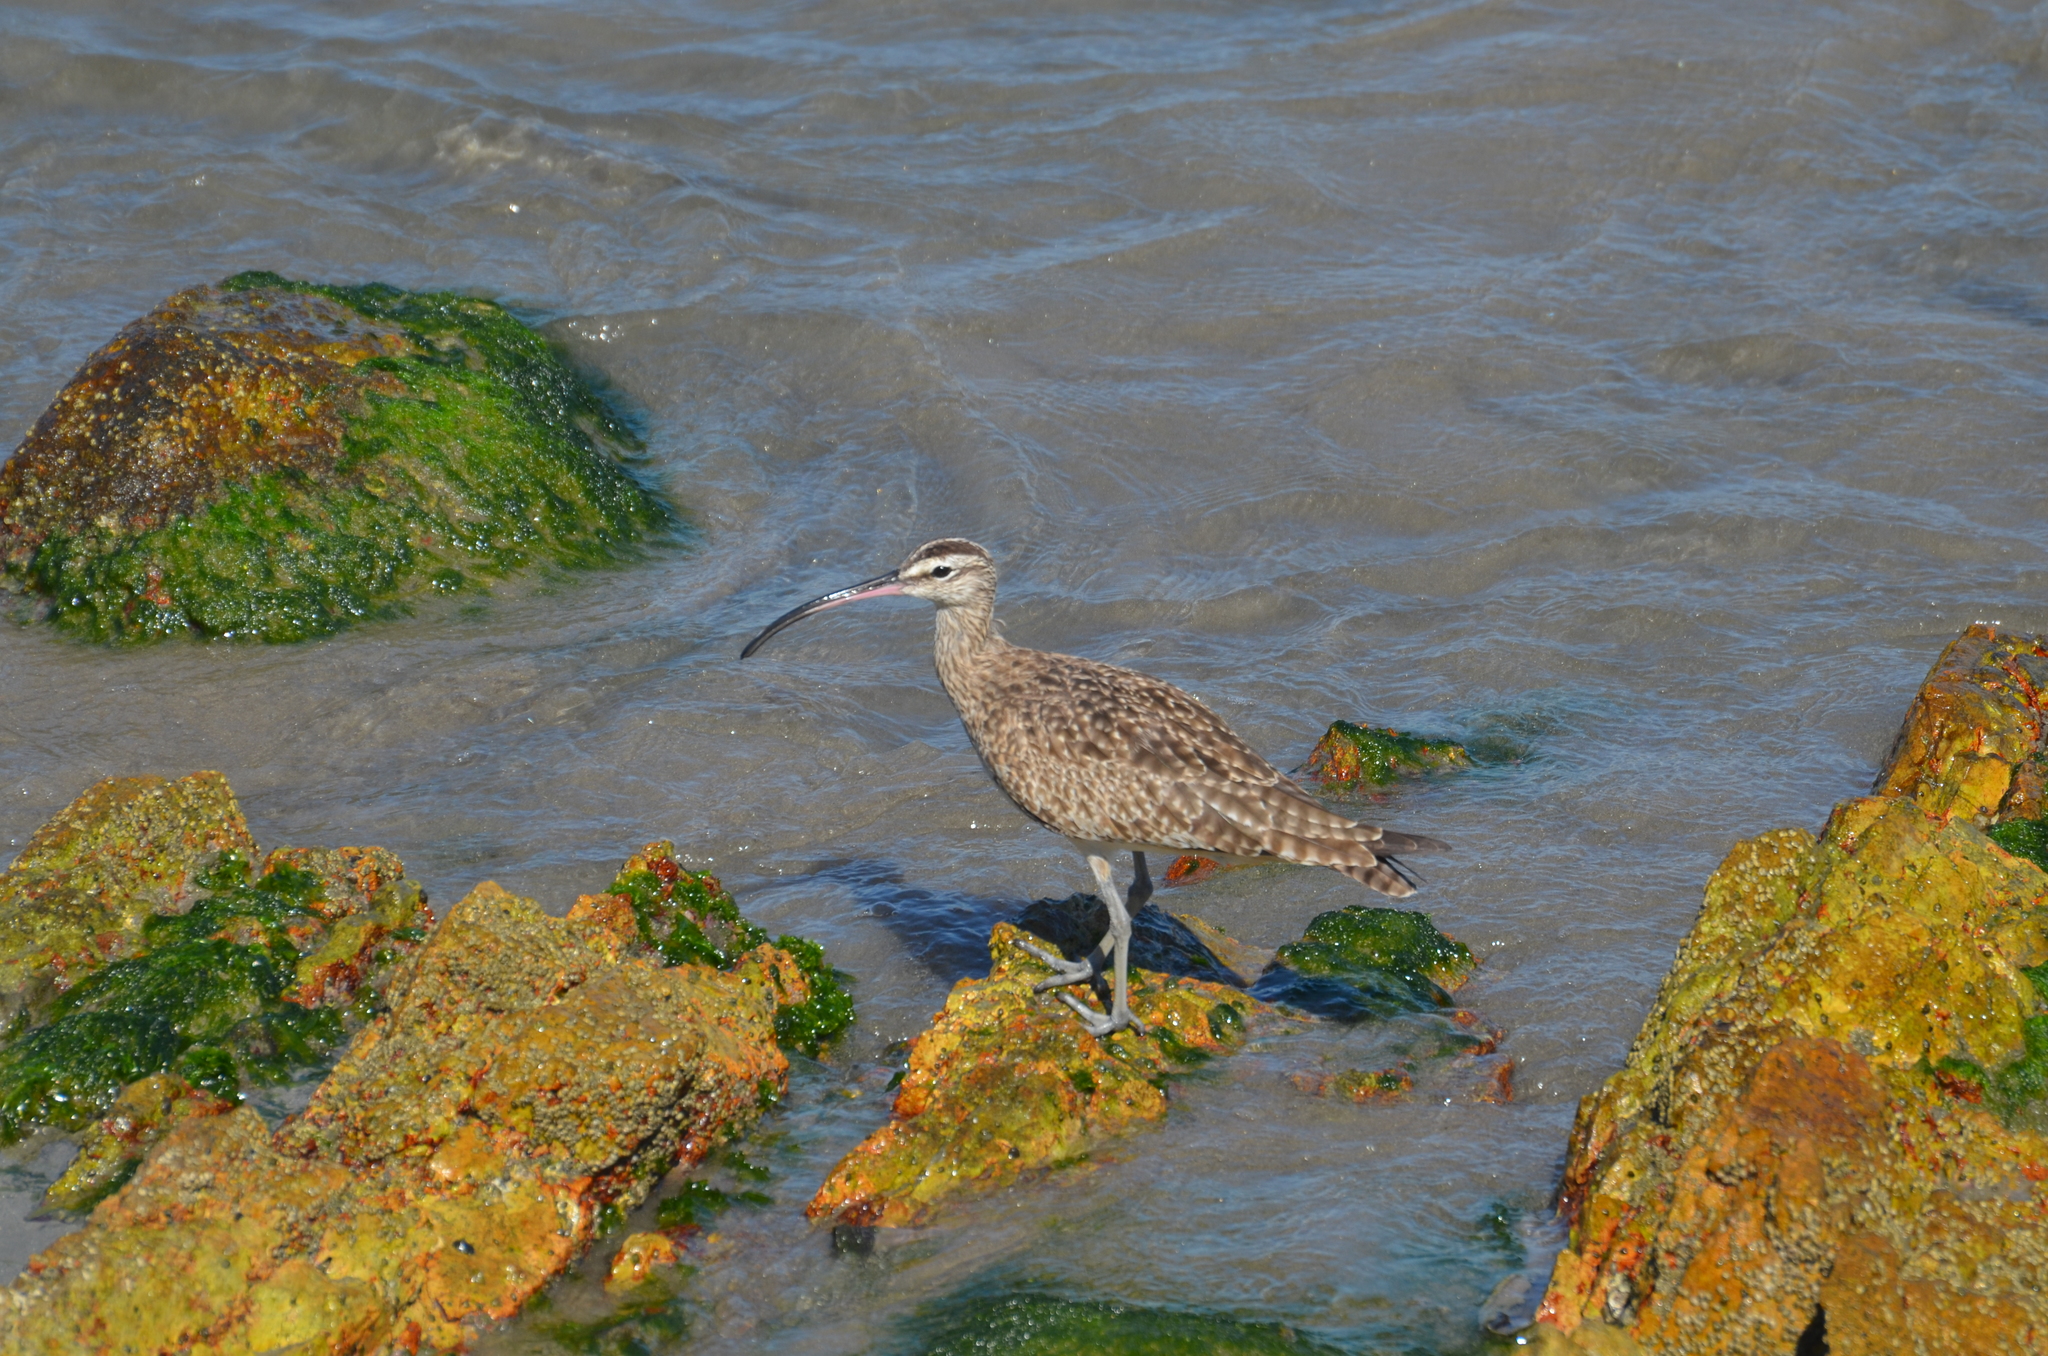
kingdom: Animalia
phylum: Chordata
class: Aves
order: Charadriiformes
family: Scolopacidae
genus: Numenius
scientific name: Numenius phaeopus
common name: Whimbrel
